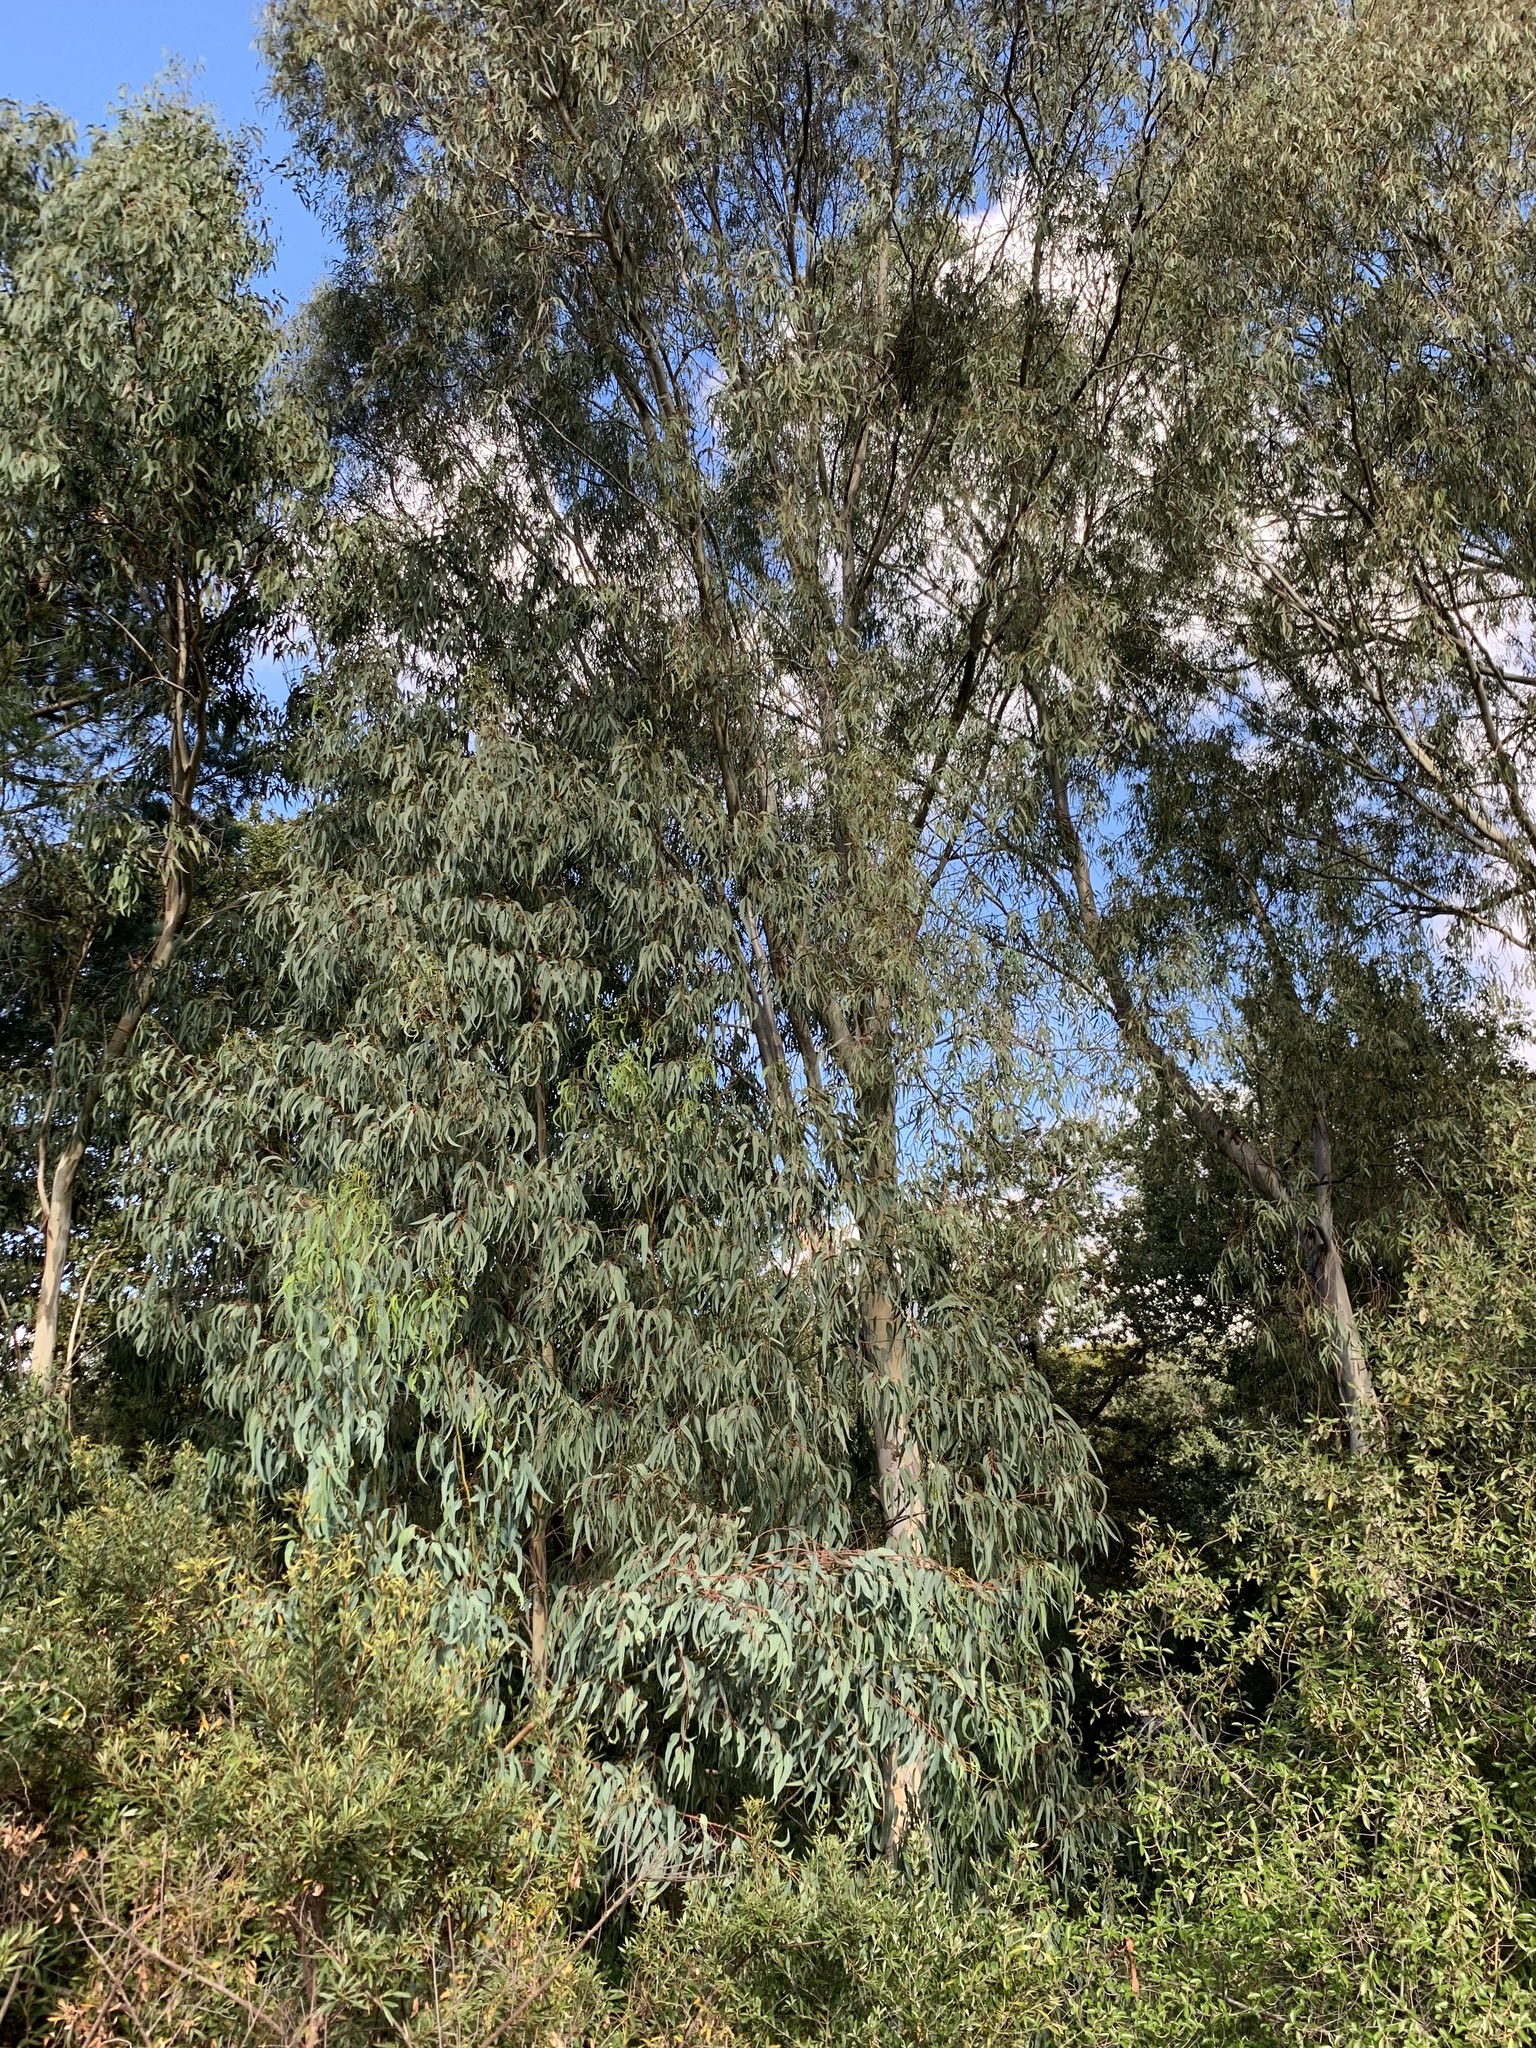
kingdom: Plantae
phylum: Tracheophyta
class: Magnoliopsida
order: Myrtales
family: Myrtaceae
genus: Eucalyptus
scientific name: Eucalyptus camaldulensis
